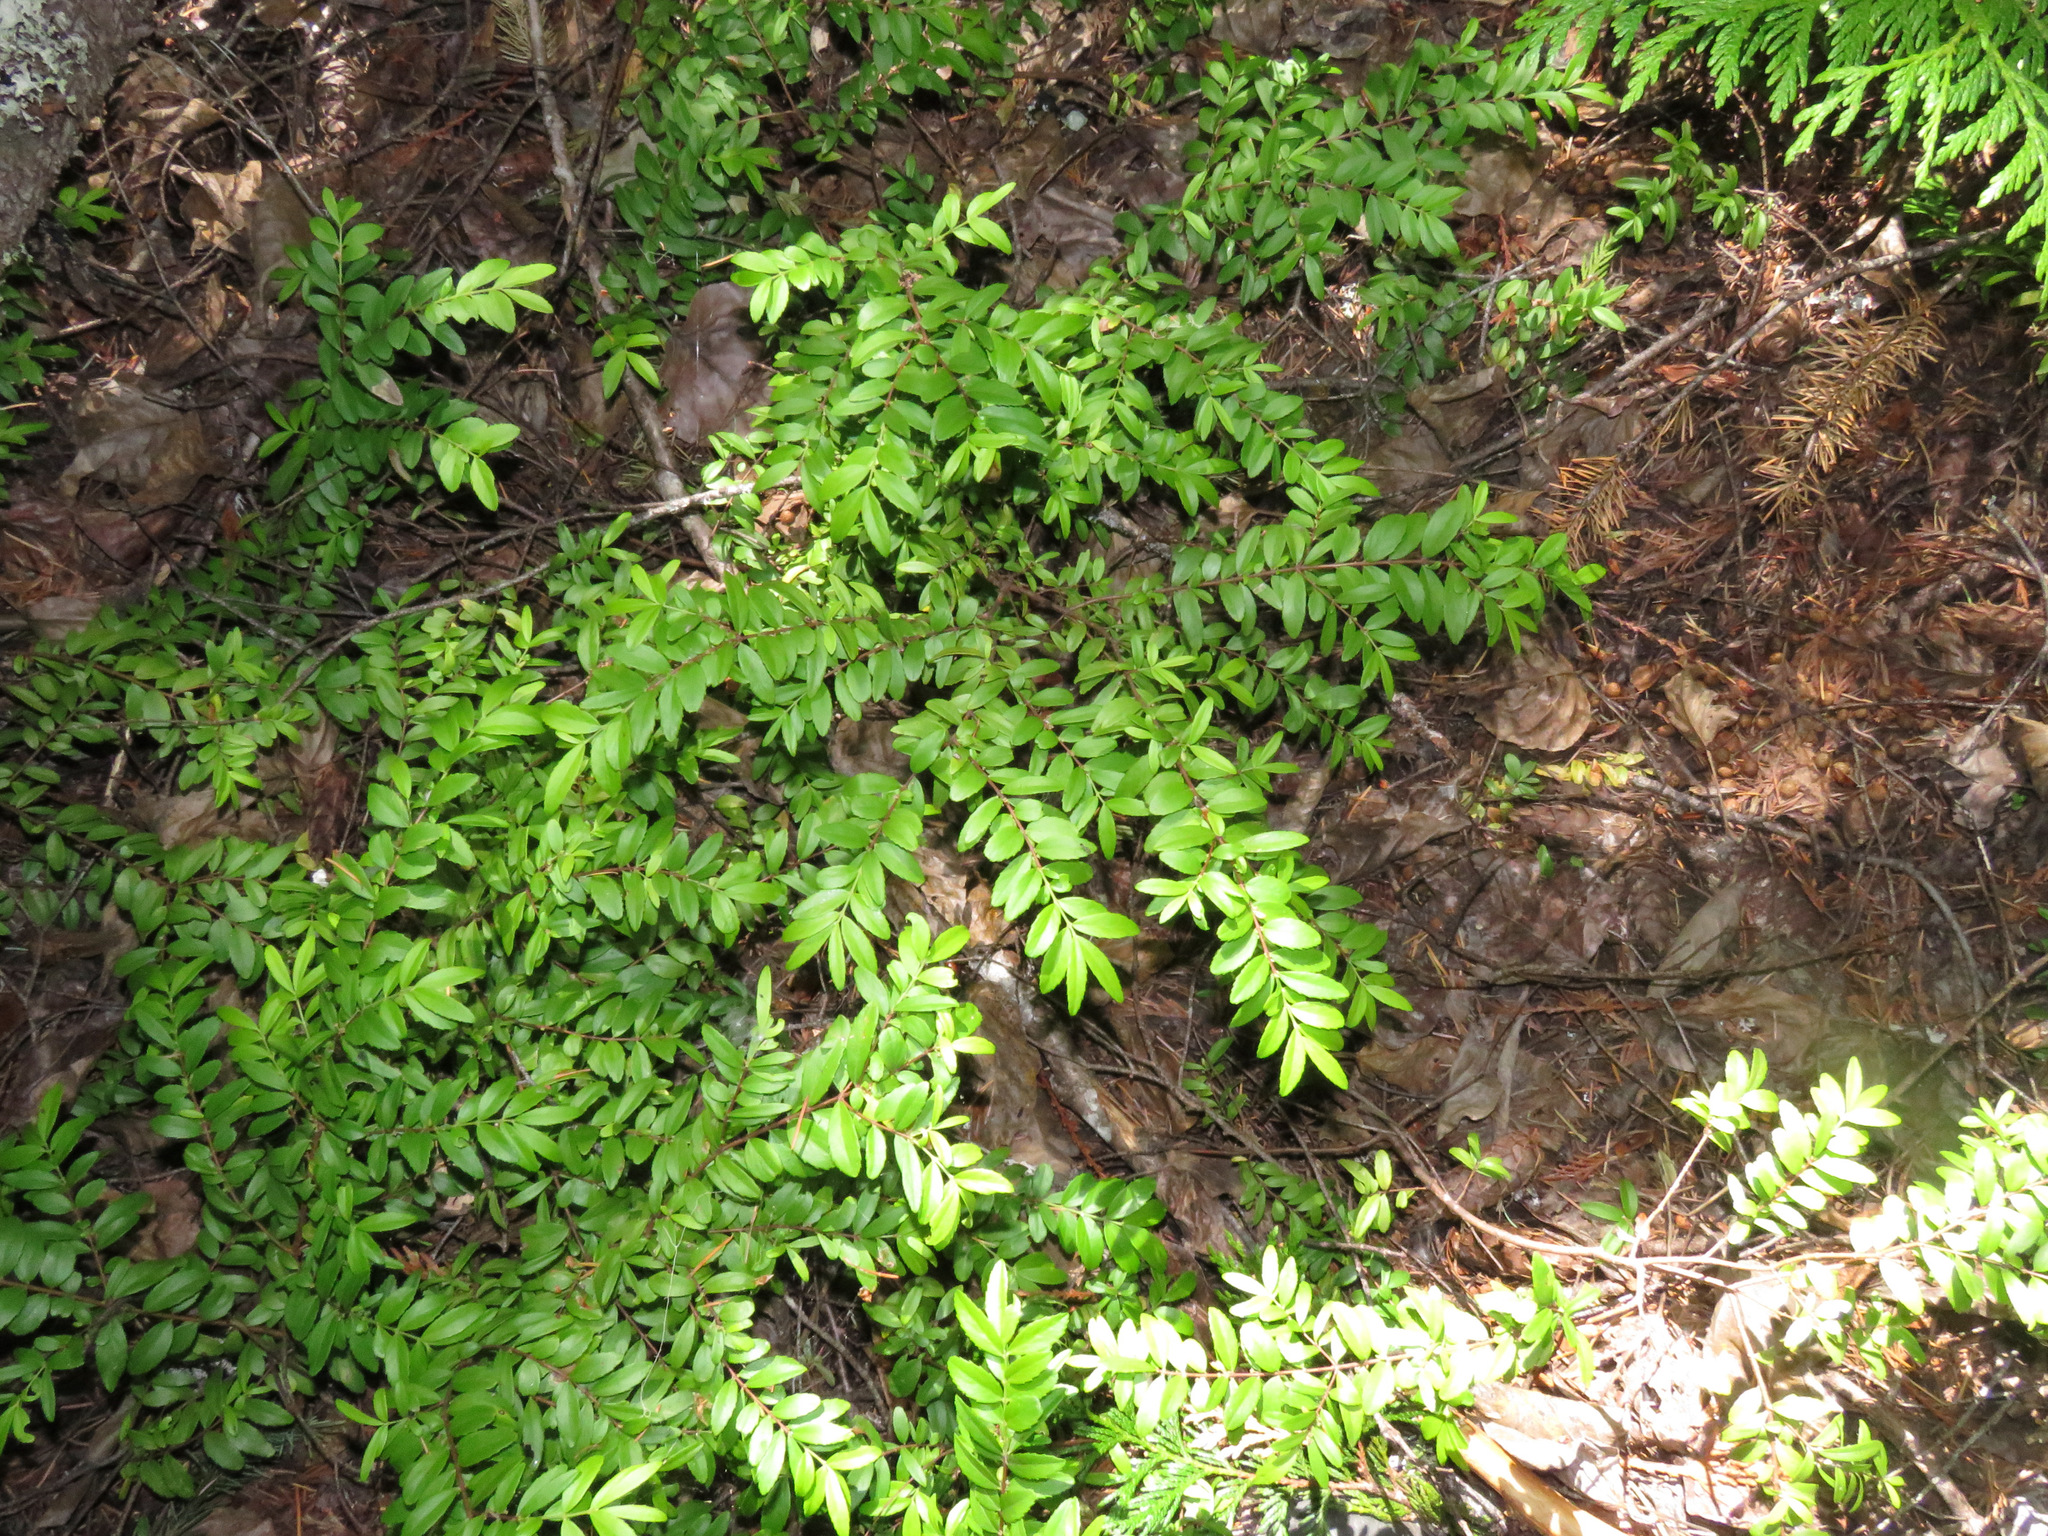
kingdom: Plantae
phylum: Tracheophyta
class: Magnoliopsida
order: Celastrales
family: Celastraceae
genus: Paxistima
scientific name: Paxistima myrsinites
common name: Mountain-lover
